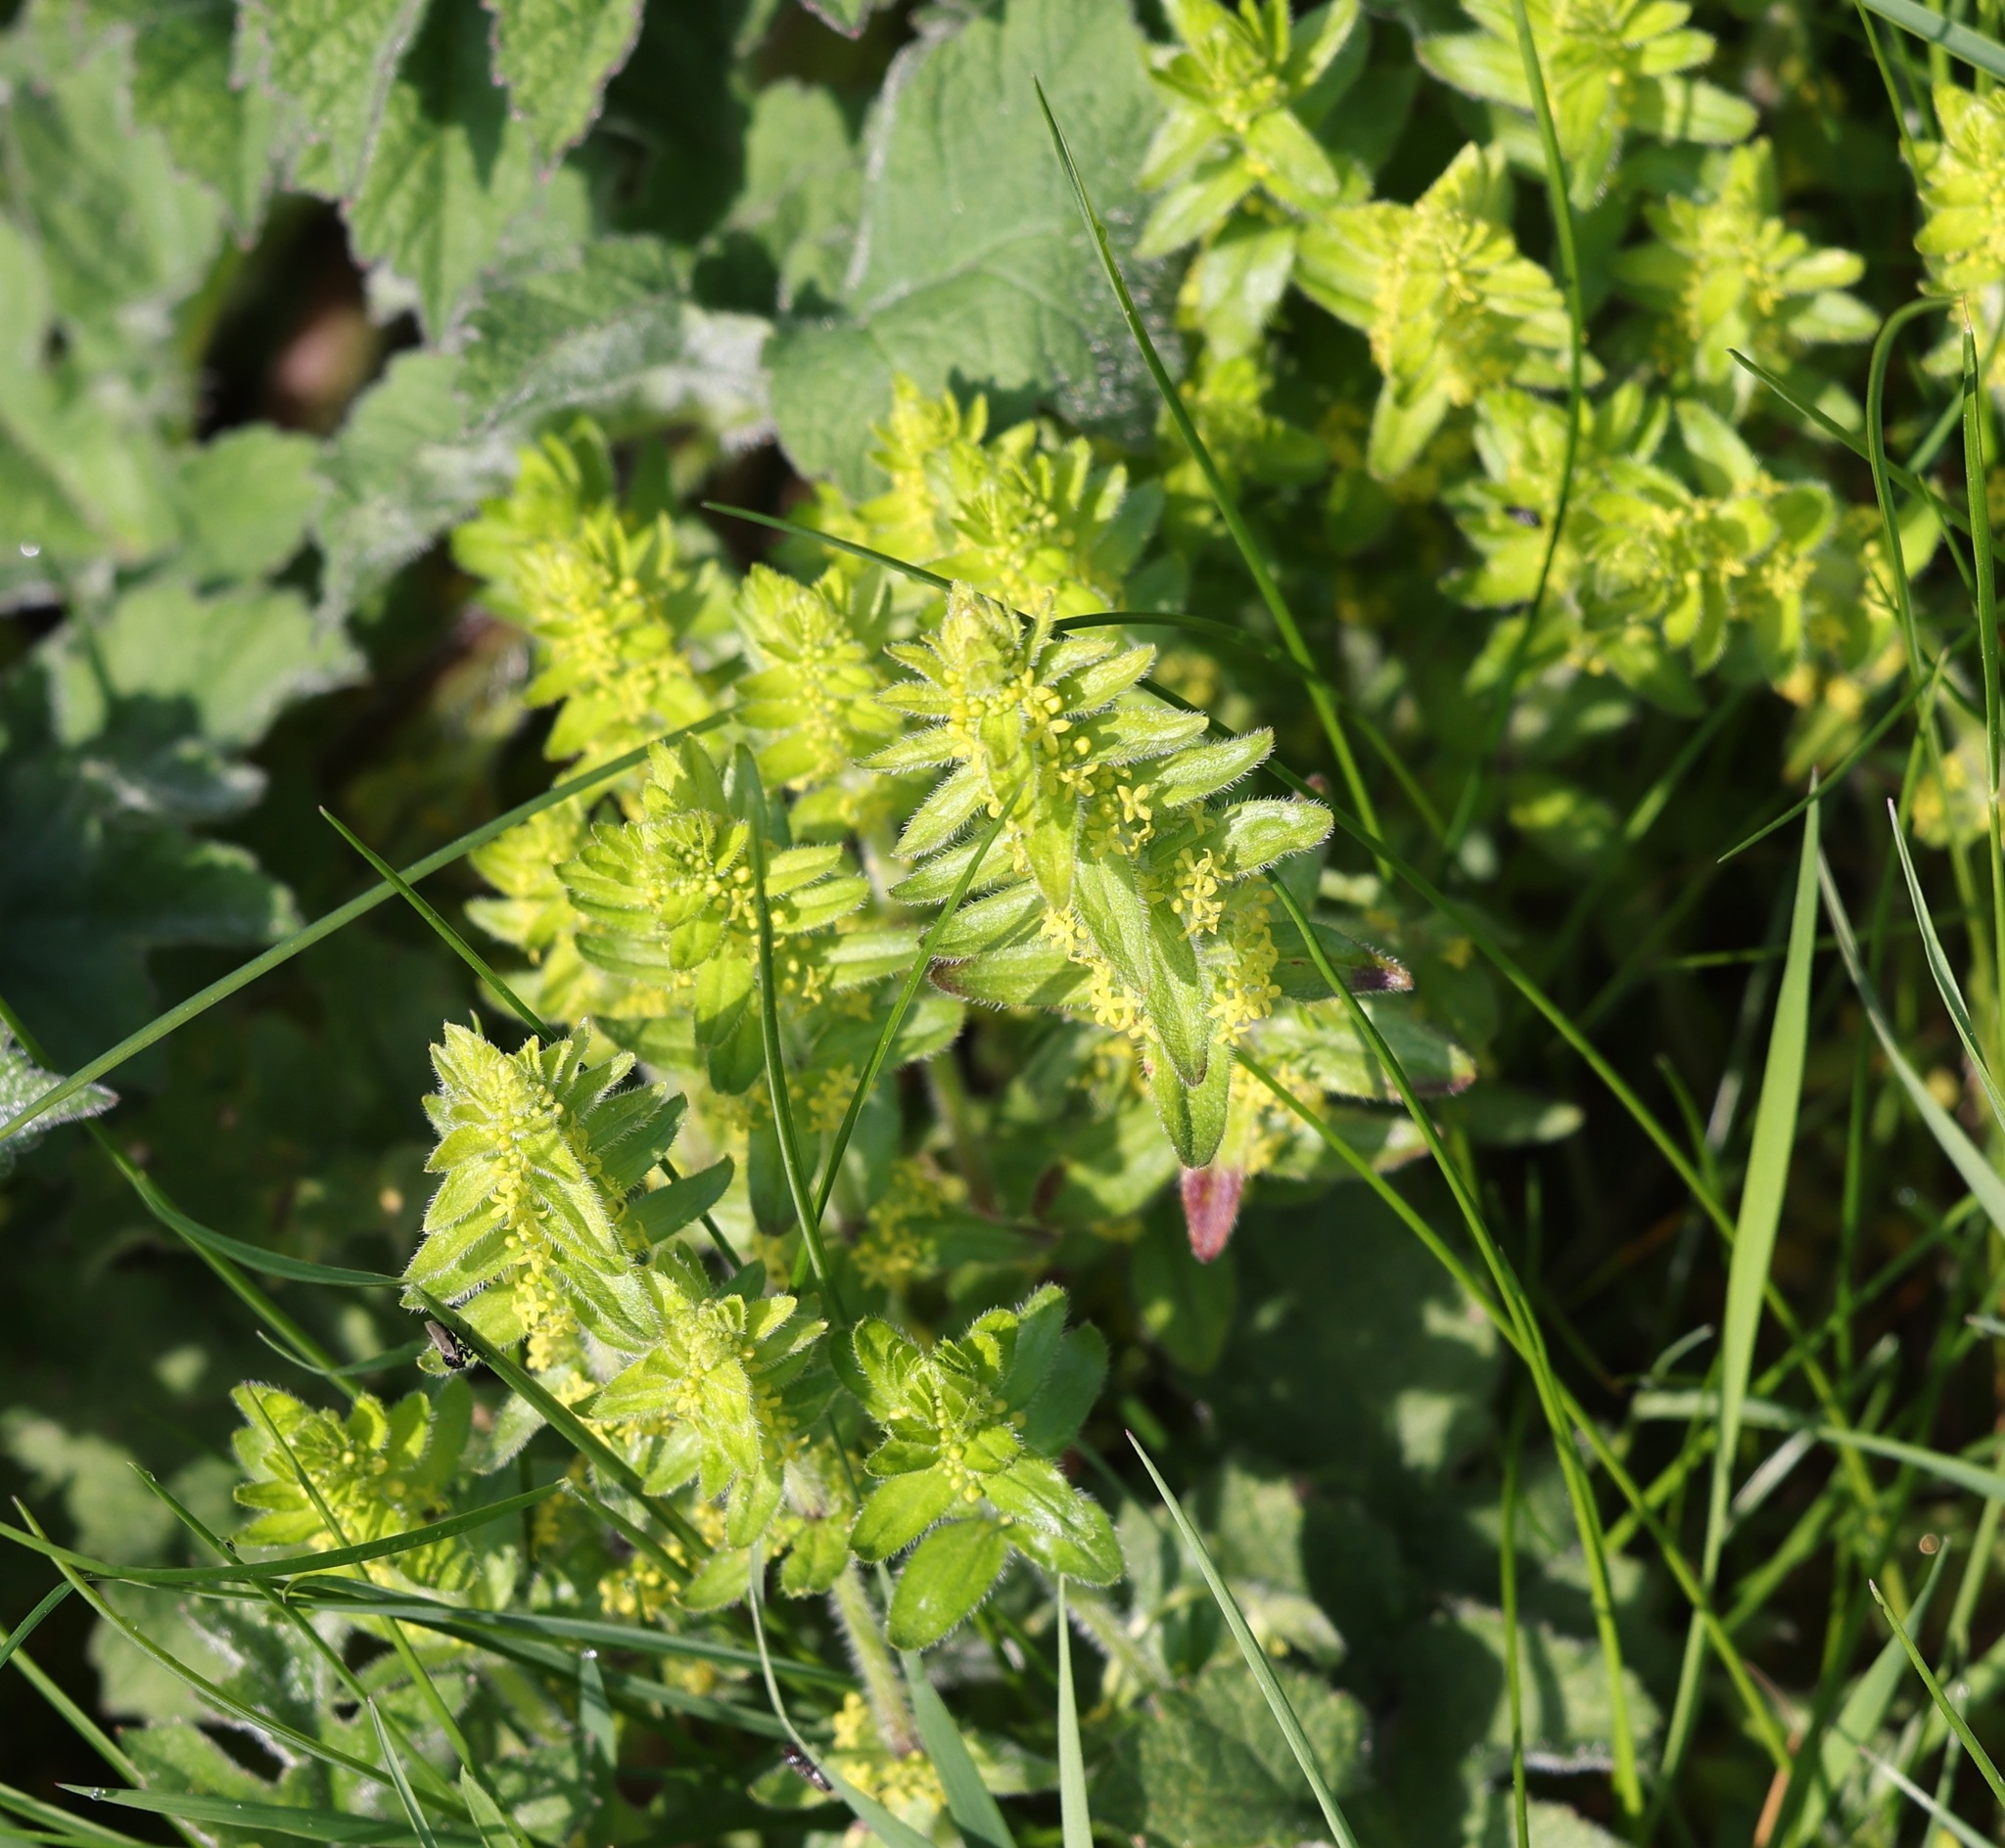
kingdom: Plantae
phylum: Tracheophyta
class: Magnoliopsida
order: Gentianales
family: Rubiaceae
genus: Cruciata
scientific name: Cruciata laevipes
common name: Crosswort
